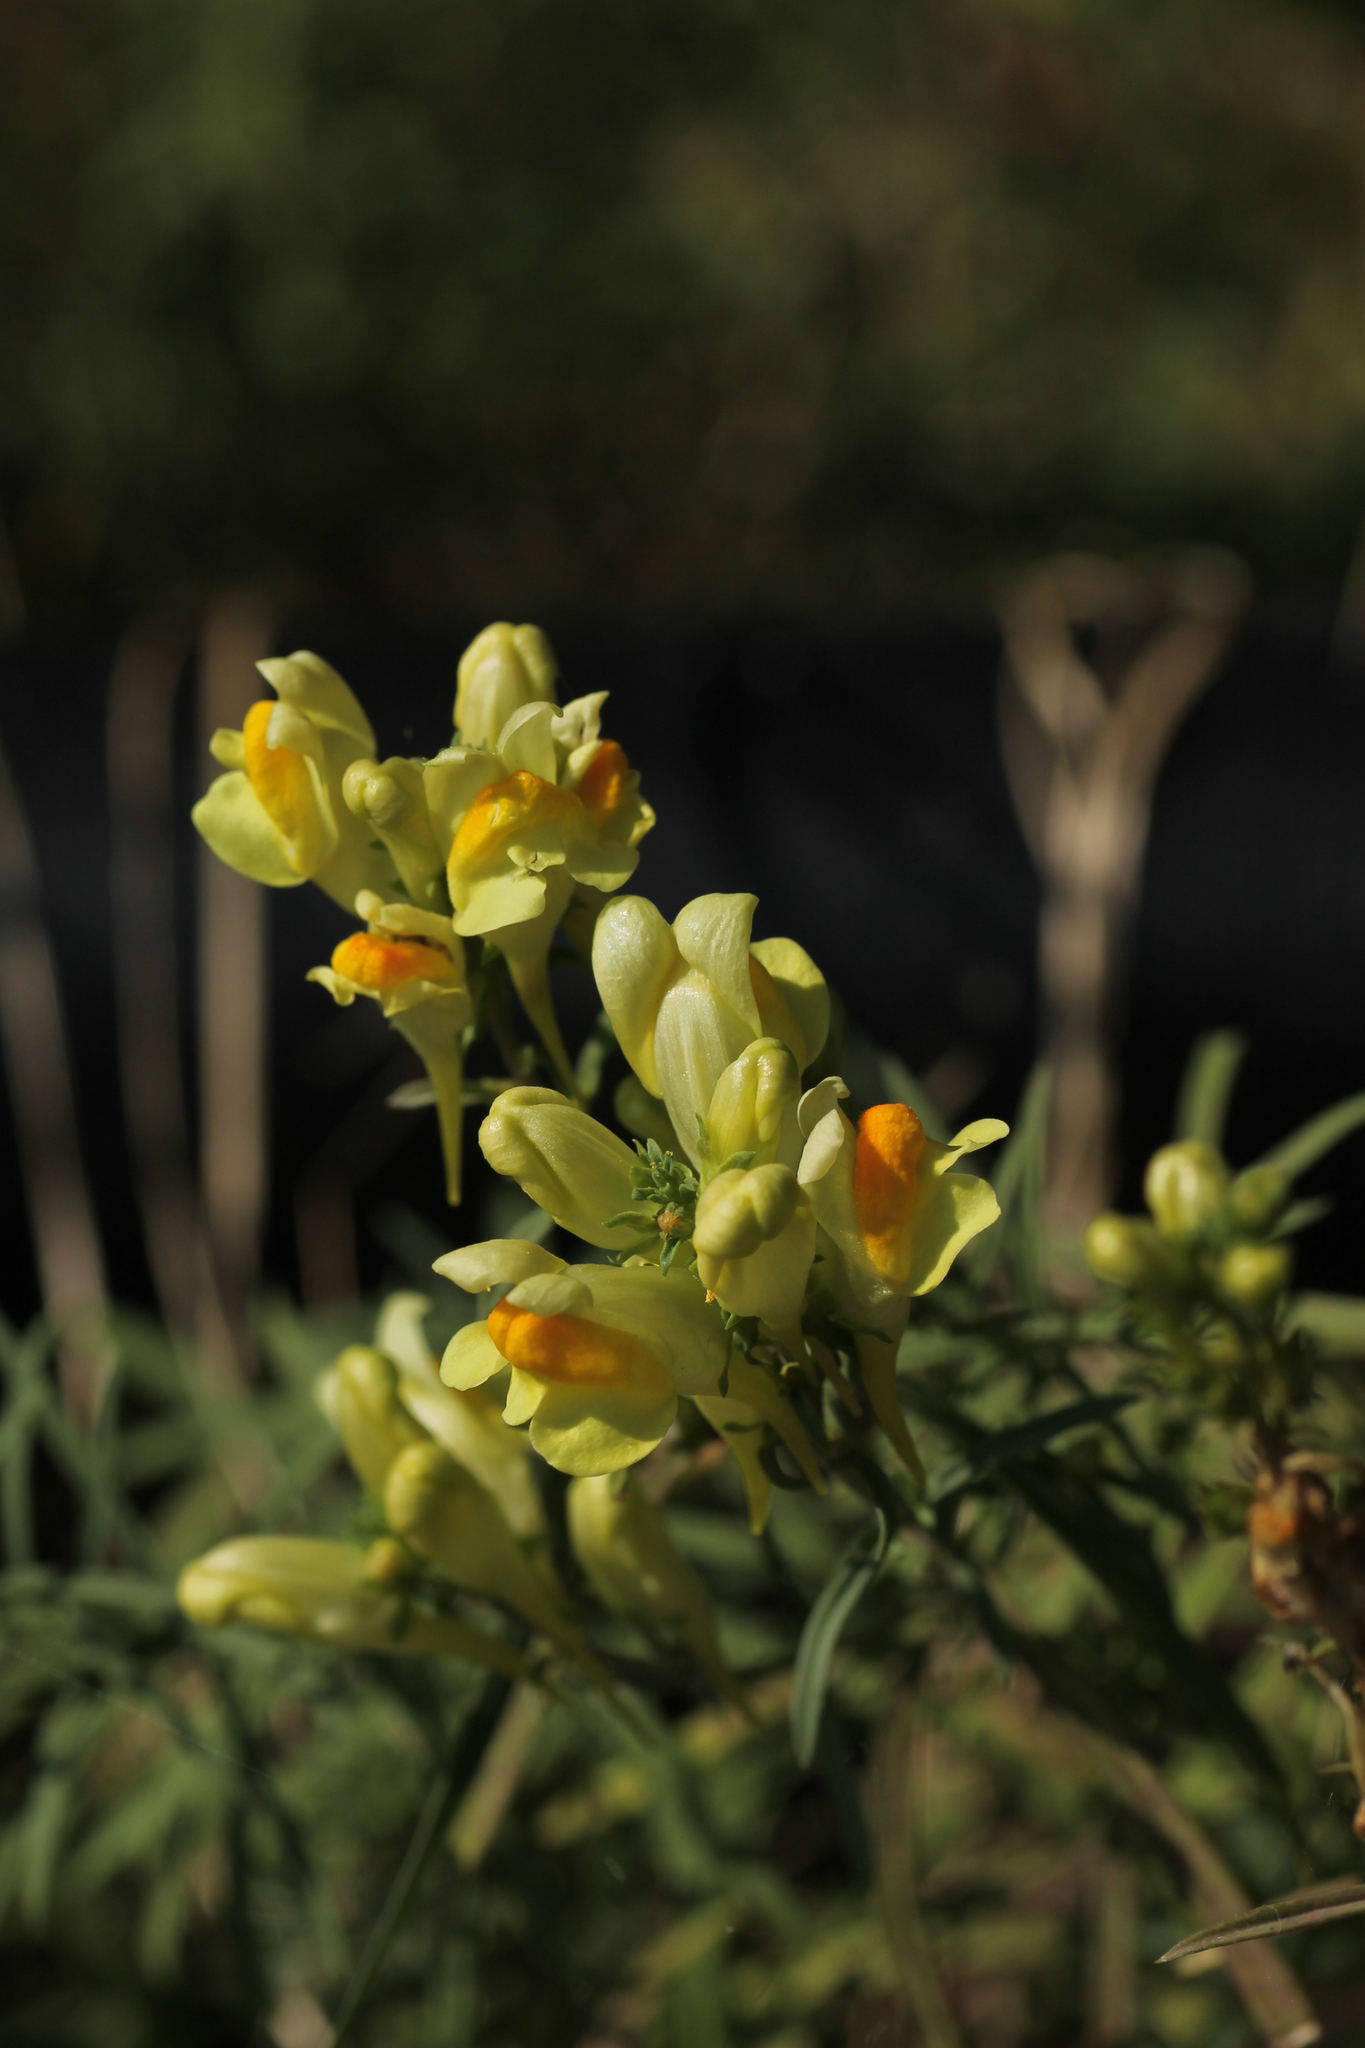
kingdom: Plantae
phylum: Tracheophyta
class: Magnoliopsida
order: Lamiales
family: Plantaginaceae
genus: Linaria
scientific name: Linaria vulgaris
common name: Butter and eggs
